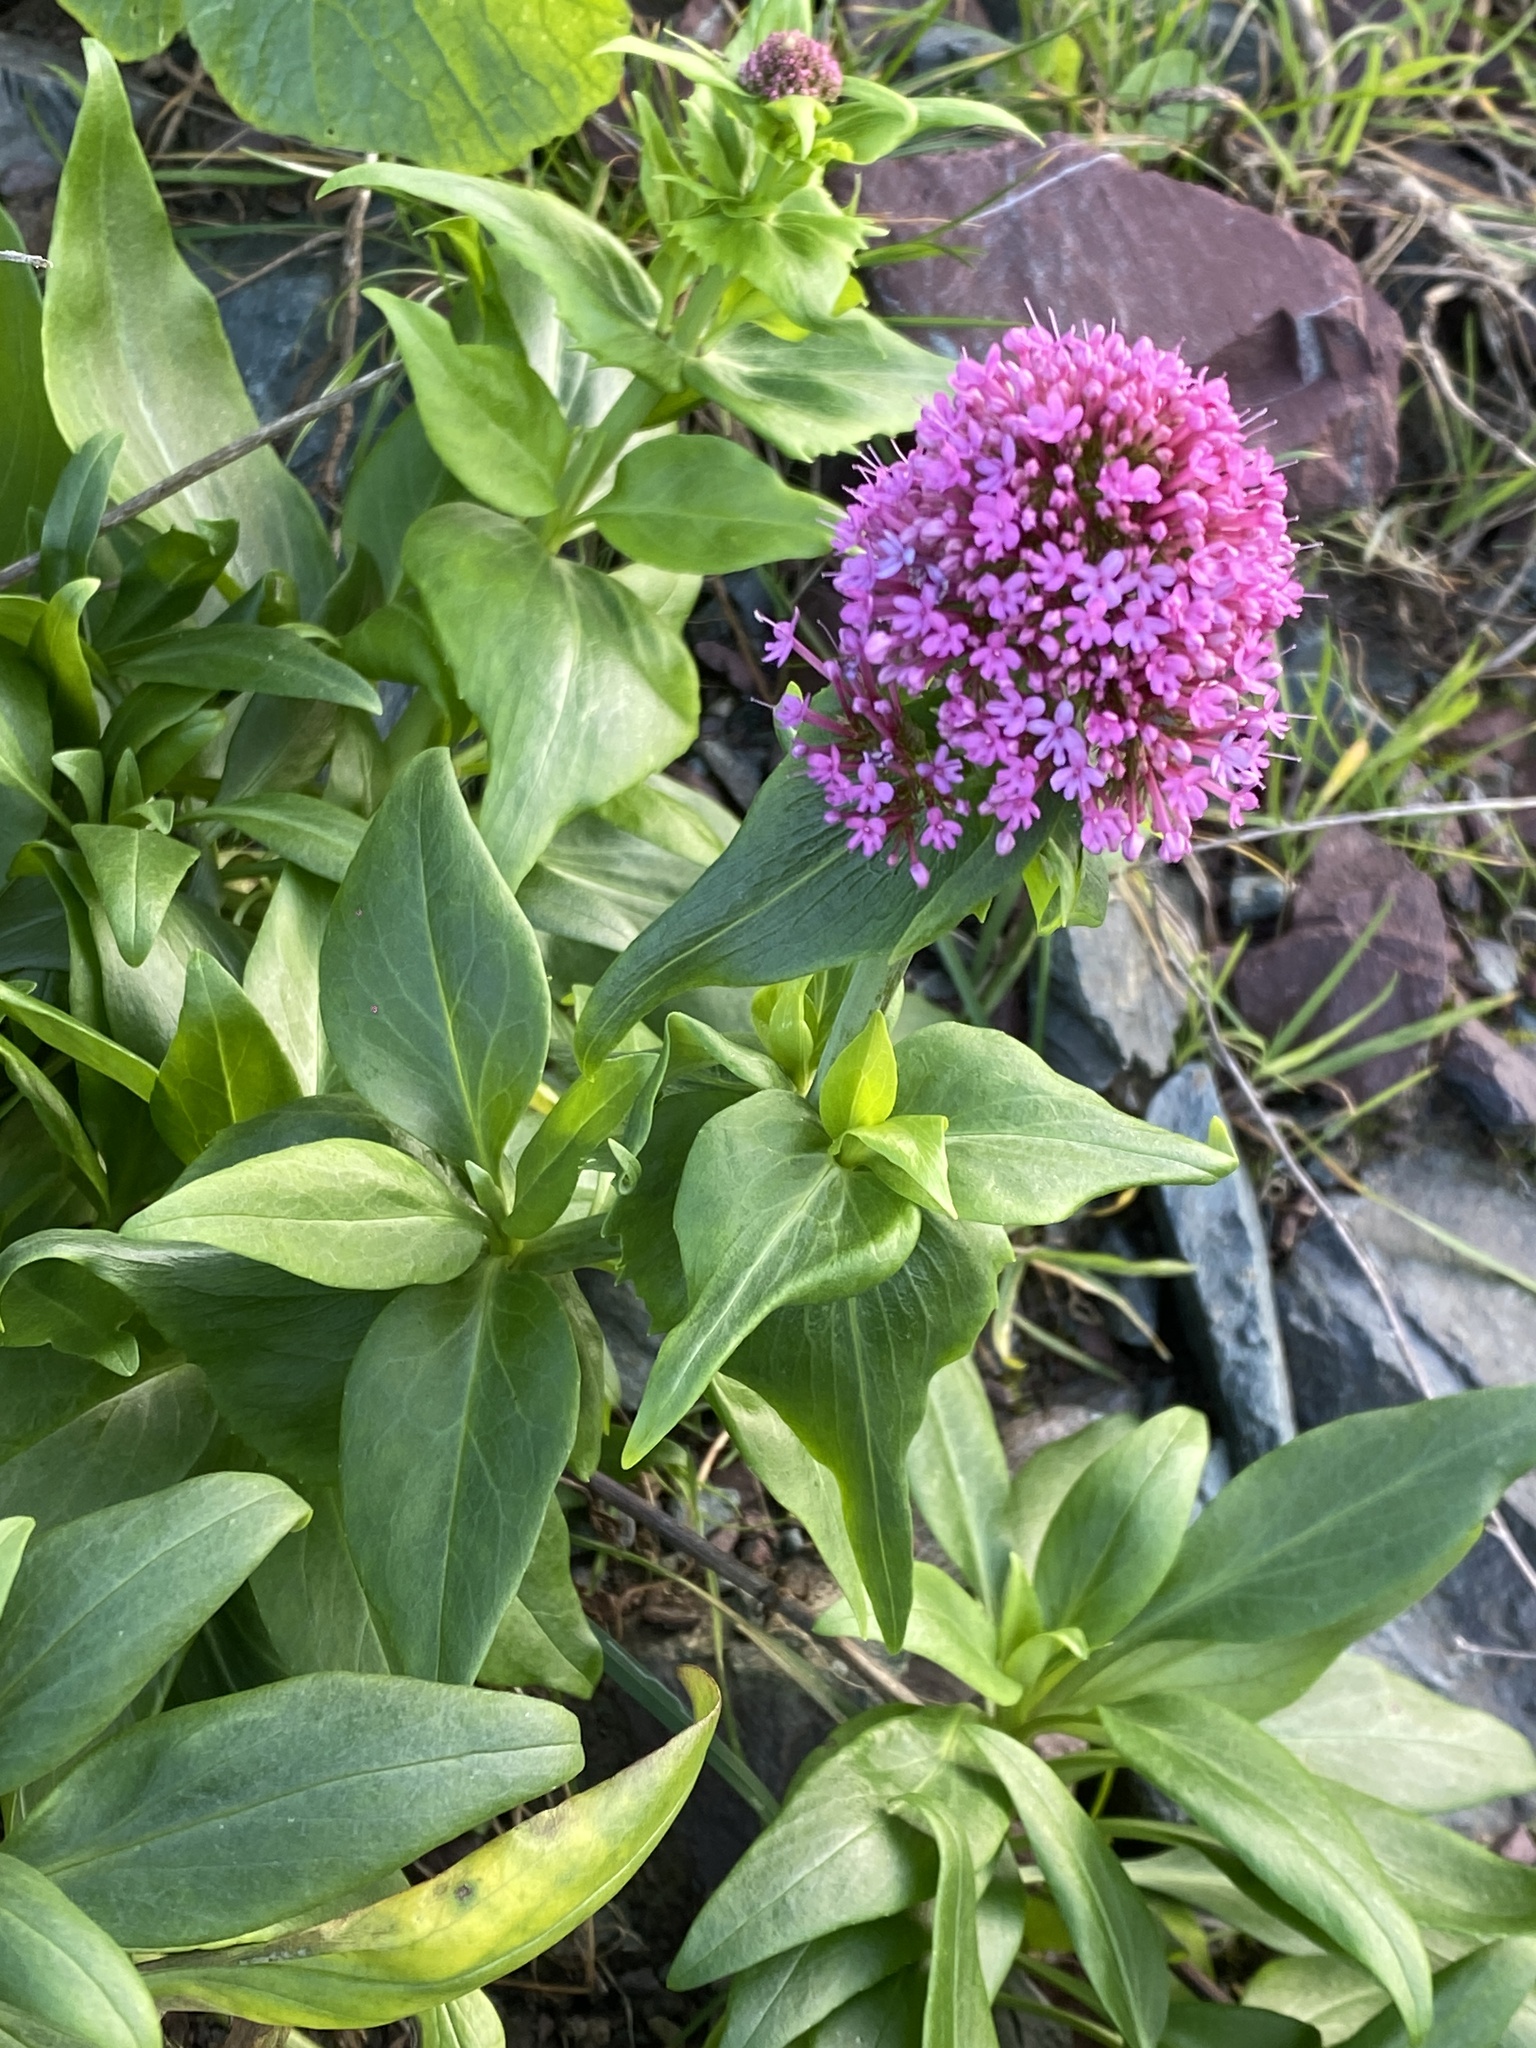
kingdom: Plantae
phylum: Tracheophyta
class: Magnoliopsida
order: Dipsacales
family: Caprifoliaceae
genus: Centranthus
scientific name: Centranthus ruber
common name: Red valerian
